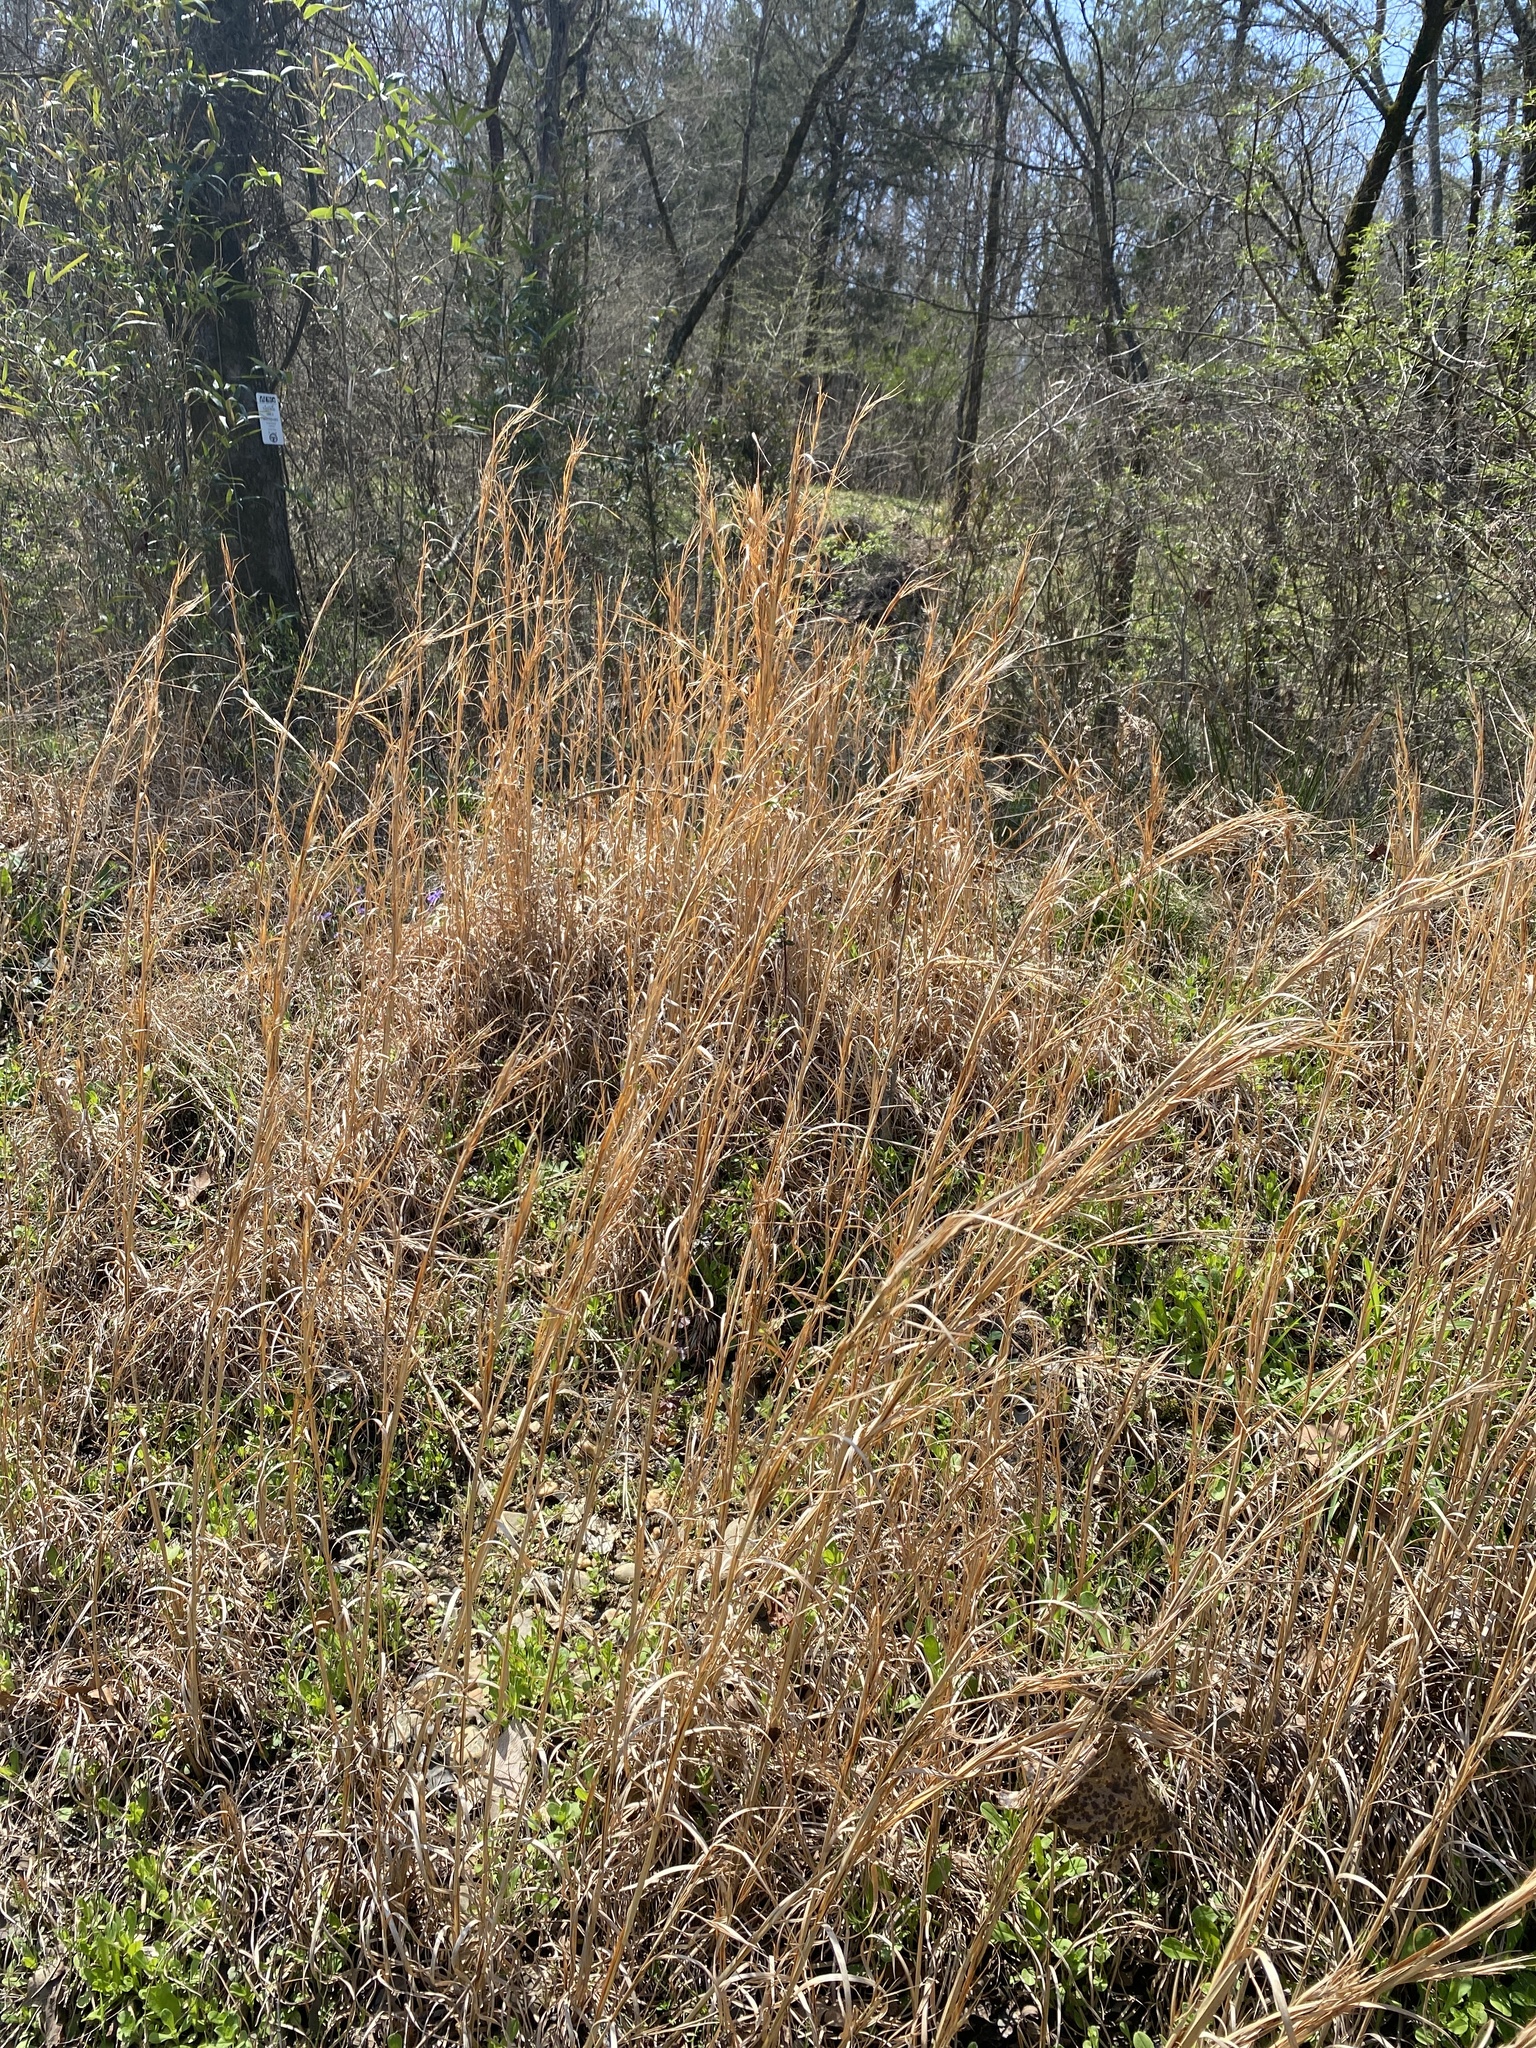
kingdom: Plantae
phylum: Tracheophyta
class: Liliopsida
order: Poales
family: Poaceae
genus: Andropogon
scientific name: Andropogon virginicus
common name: Broomsedge bluestem
